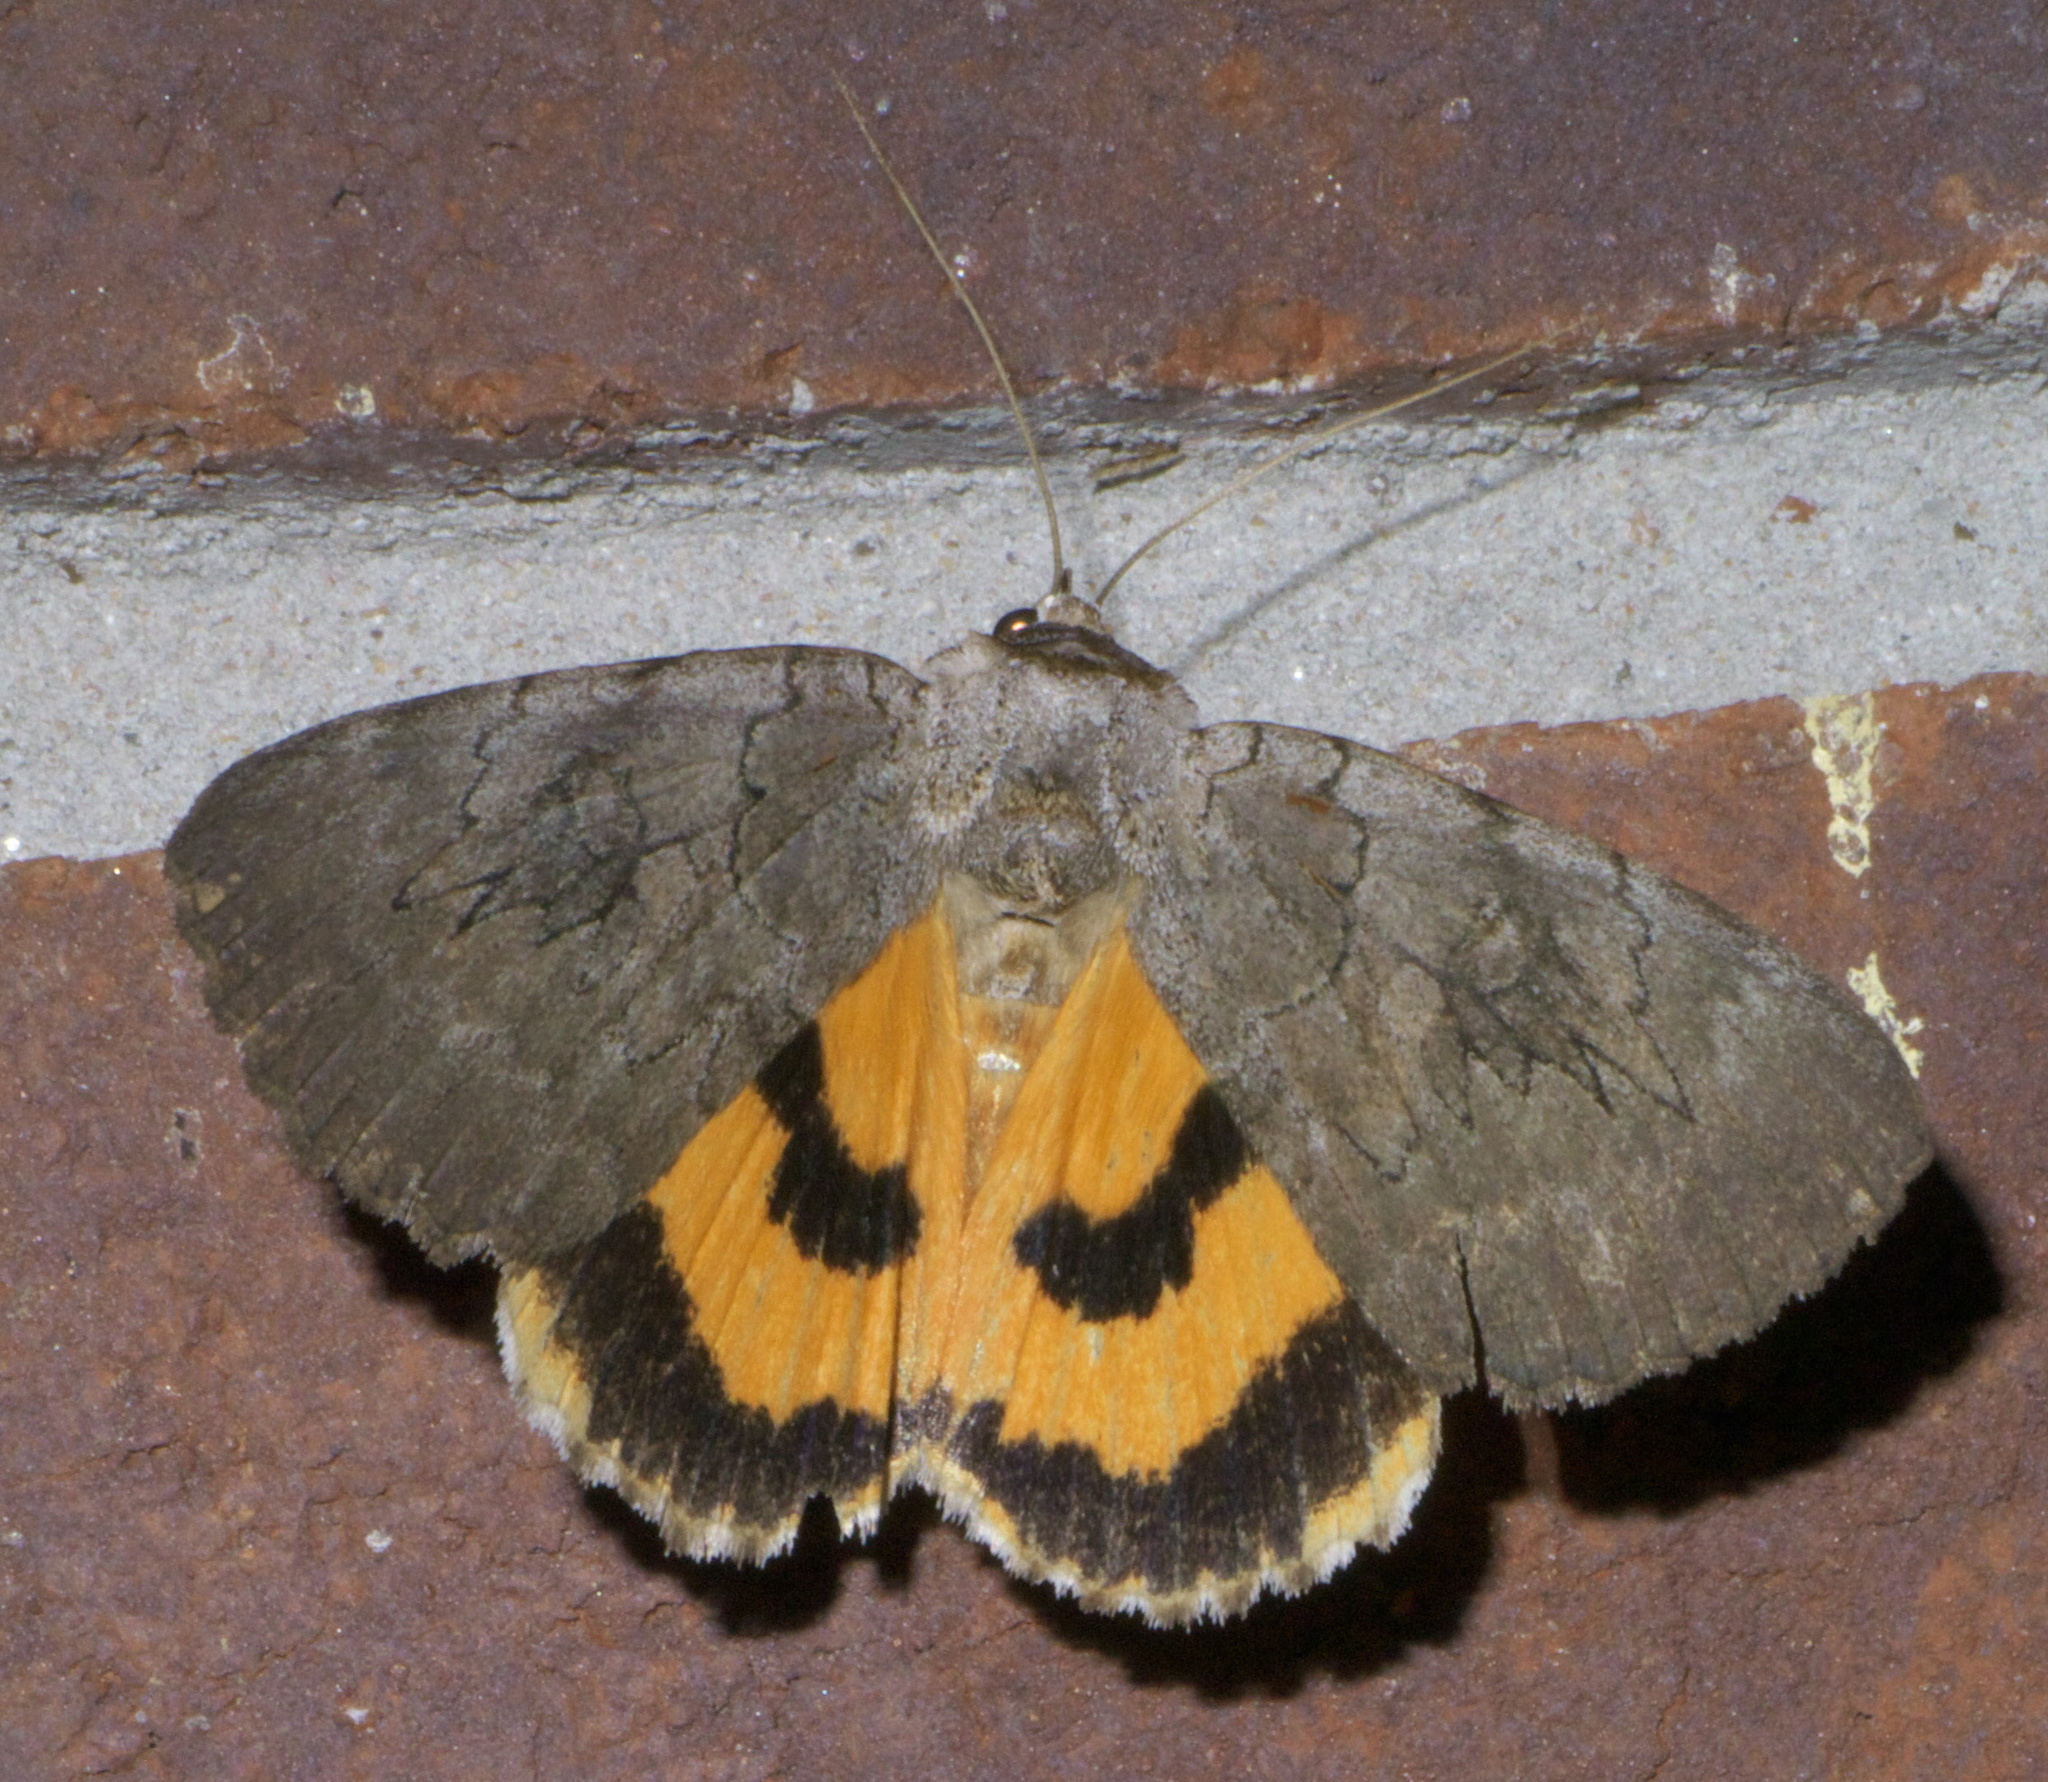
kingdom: Animalia
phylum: Arthropoda
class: Insecta
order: Lepidoptera
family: Erebidae
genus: Catocala
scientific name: Catocala illecta
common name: Magdalen underwing
